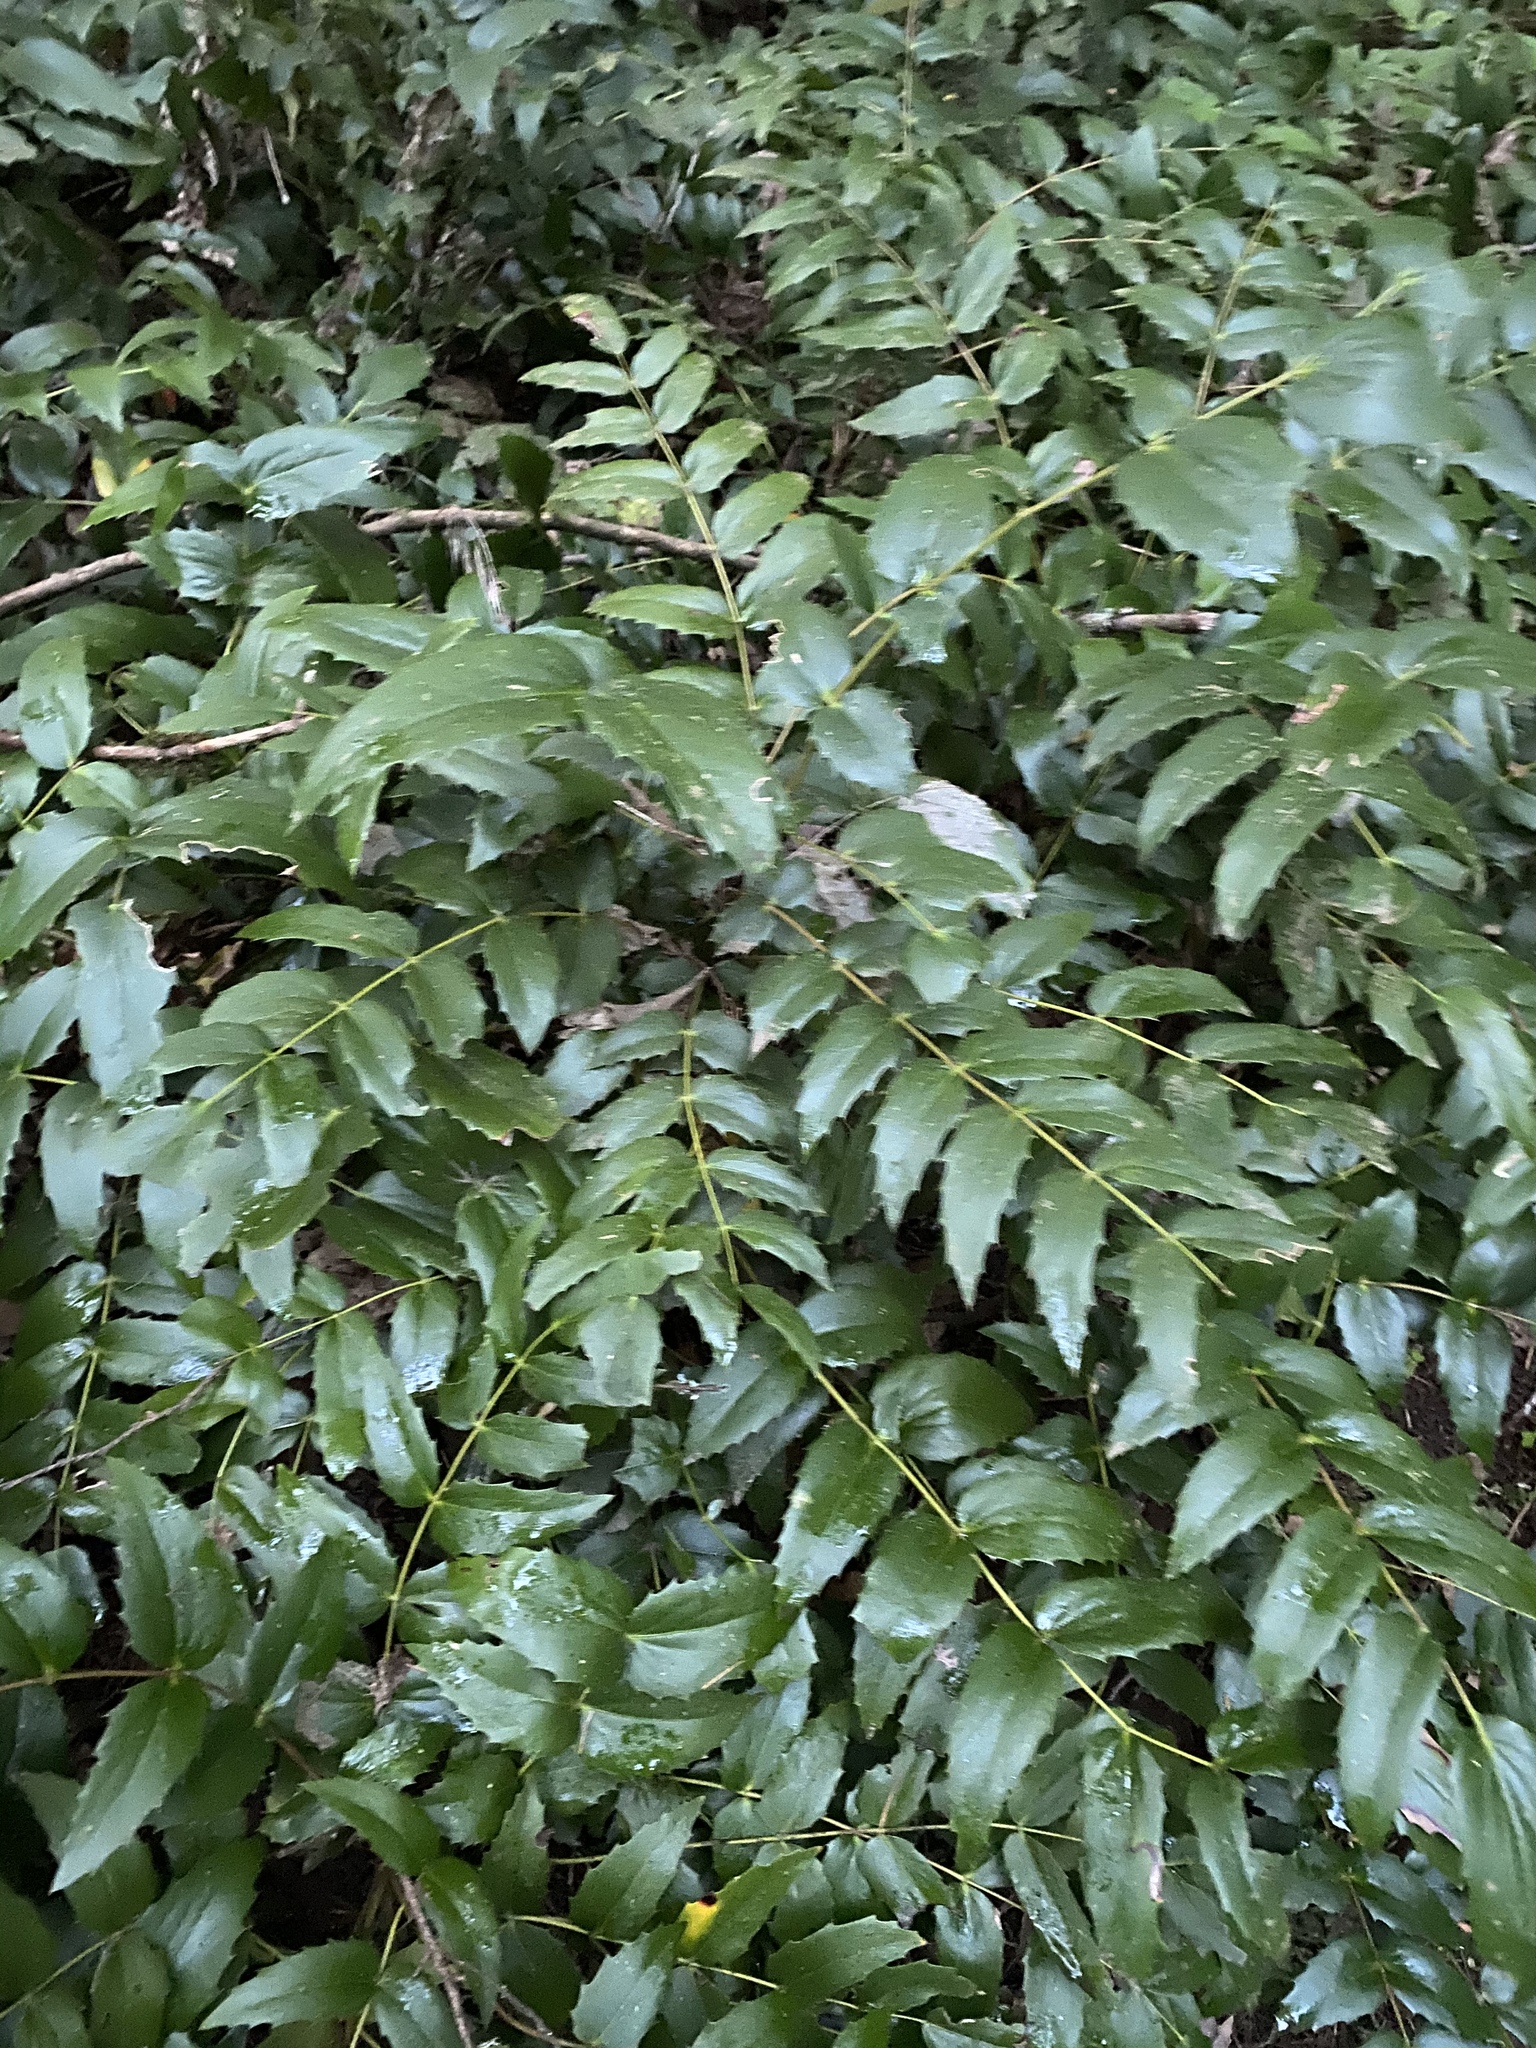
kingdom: Plantae
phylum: Tracheophyta
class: Magnoliopsida
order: Ranunculales
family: Berberidaceae
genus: Mahonia
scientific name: Mahonia nervosa
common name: Cascade oregon-grape
